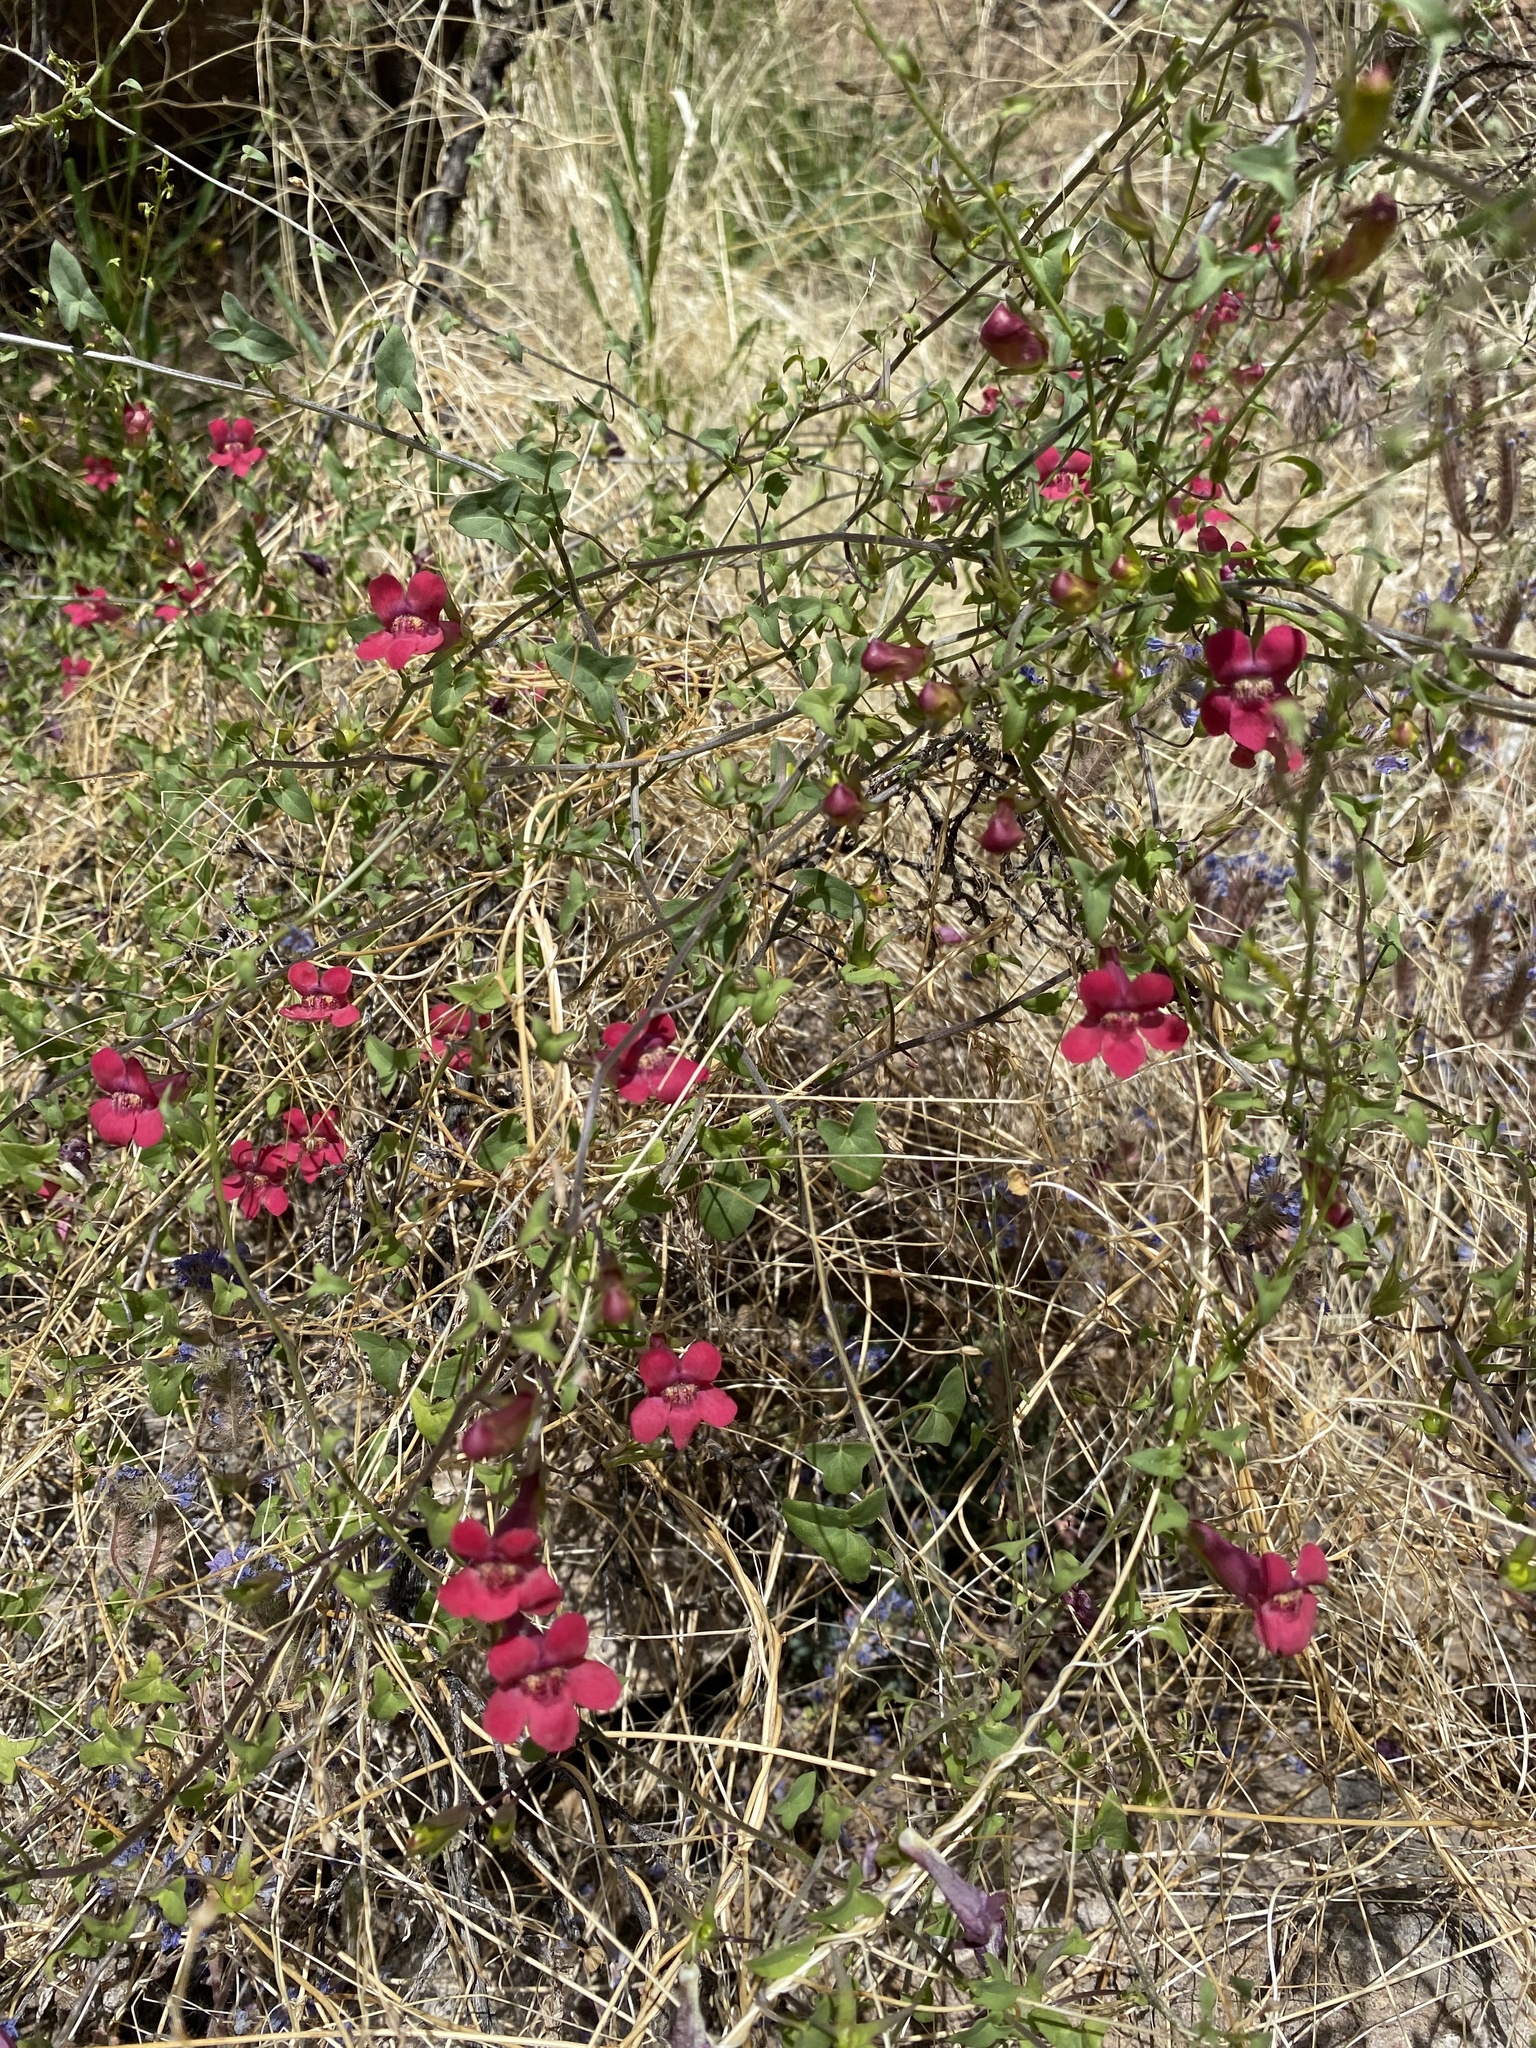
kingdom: Plantae
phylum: Tracheophyta
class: Magnoliopsida
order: Lamiales
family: Plantaginaceae
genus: Maurandella
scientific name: Maurandella antirrhiniflora
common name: Violet twining-snapdragon
